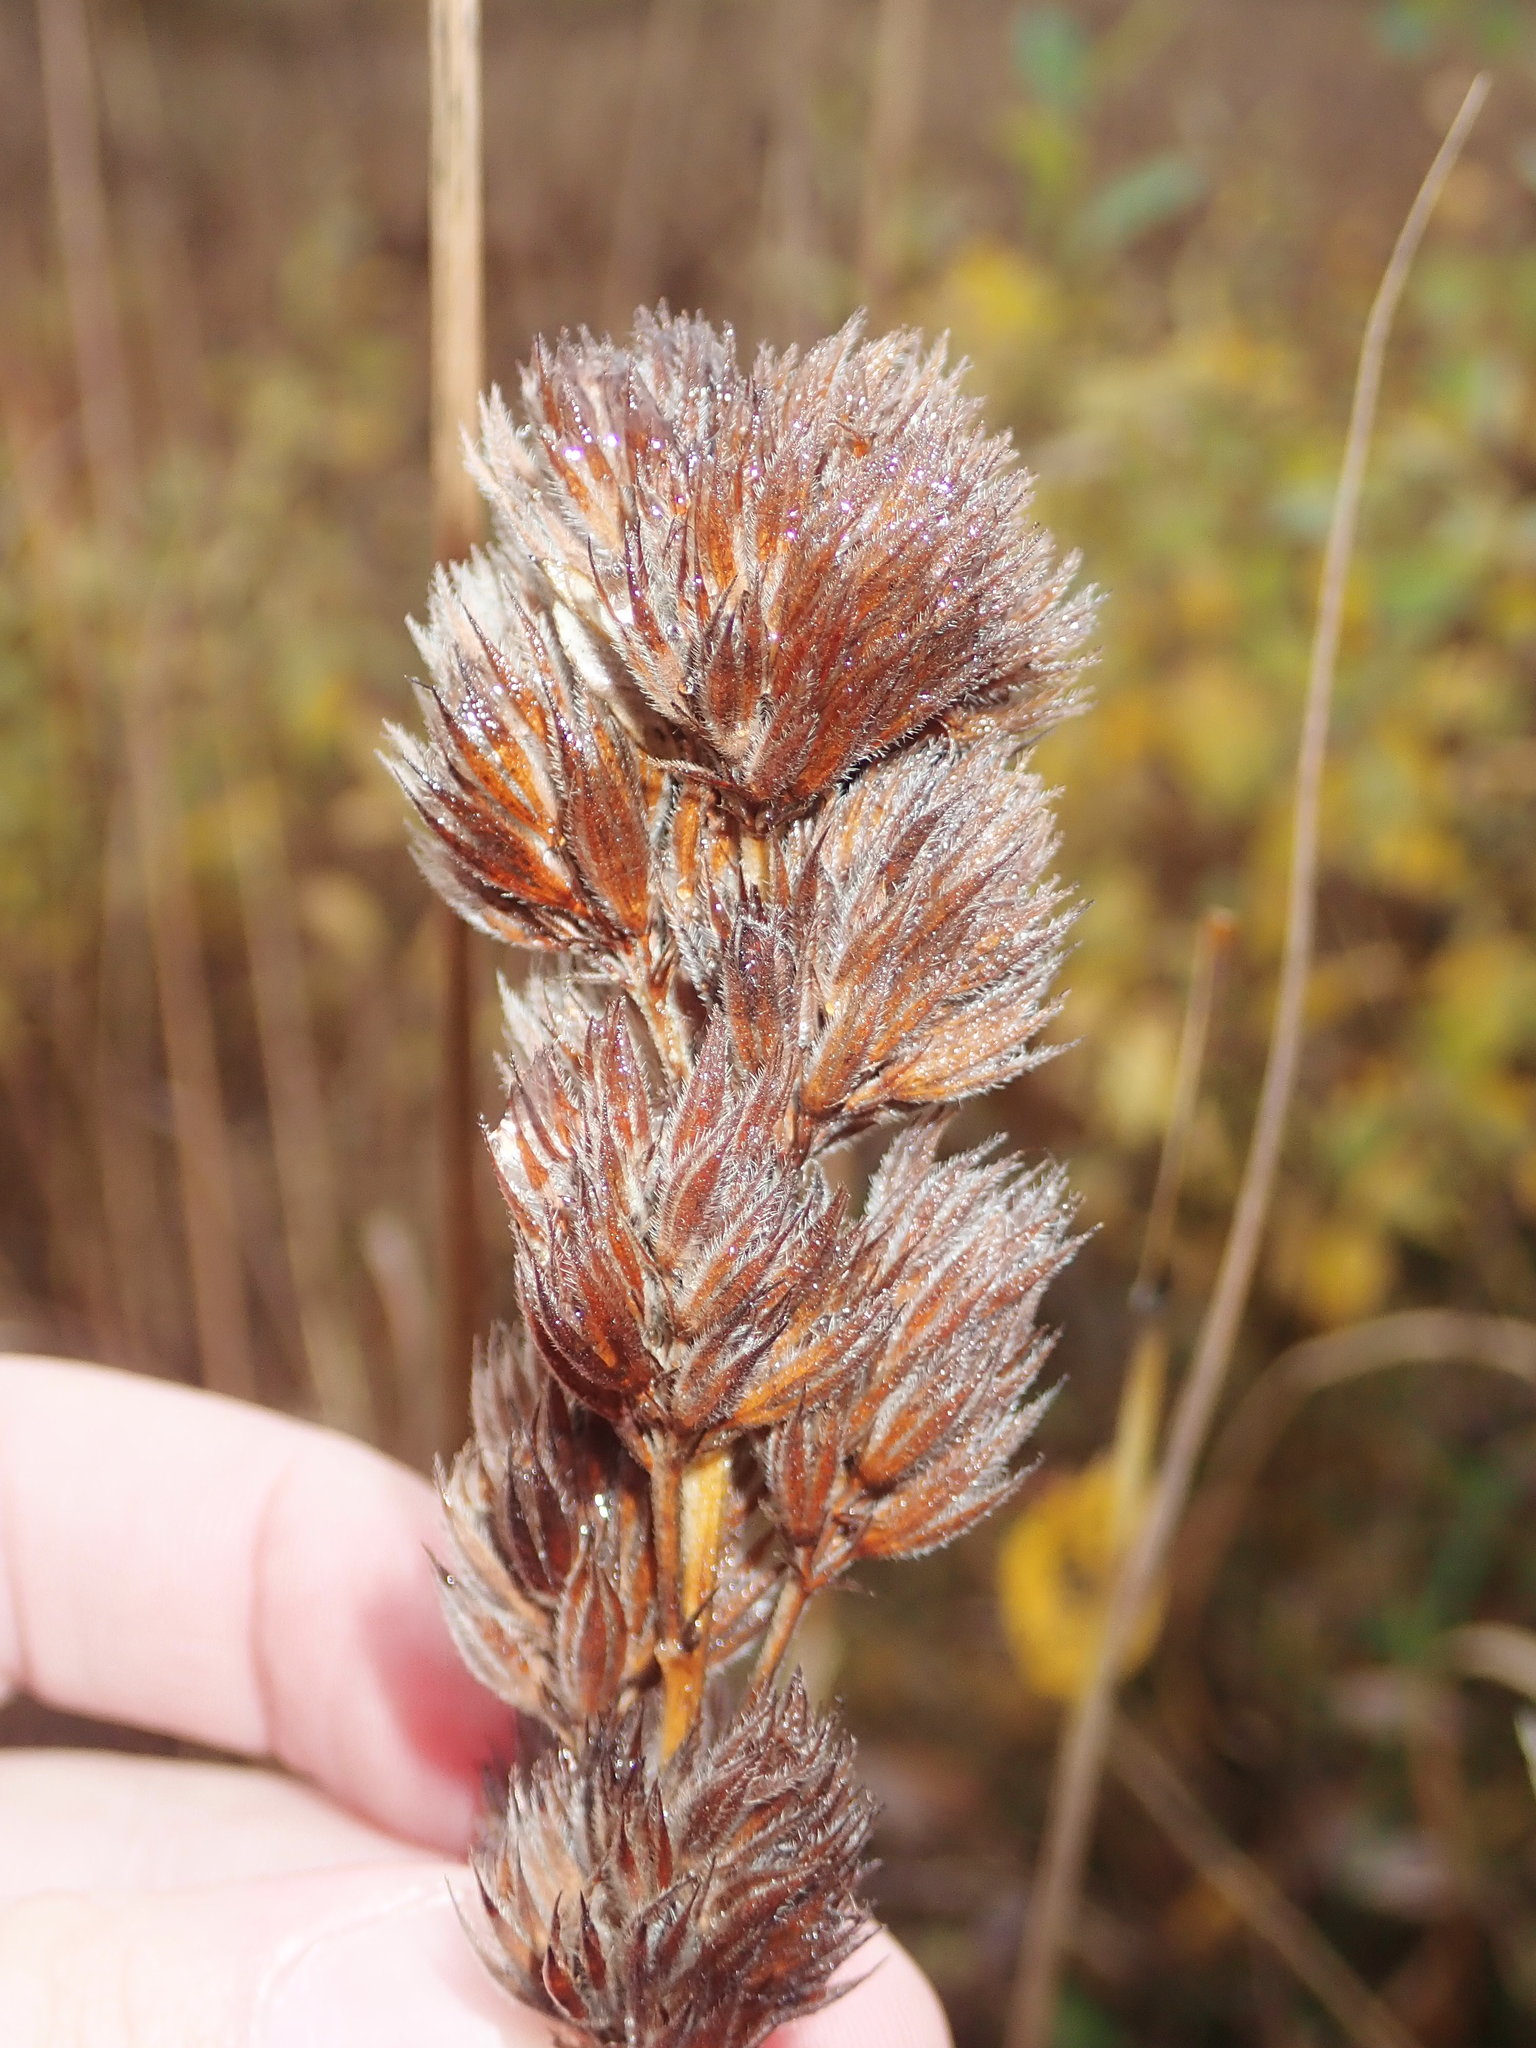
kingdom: Plantae
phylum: Tracheophyta
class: Magnoliopsida
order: Fabales
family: Fabaceae
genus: Lespedeza
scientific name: Lespedeza capitata
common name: Dusty clover
